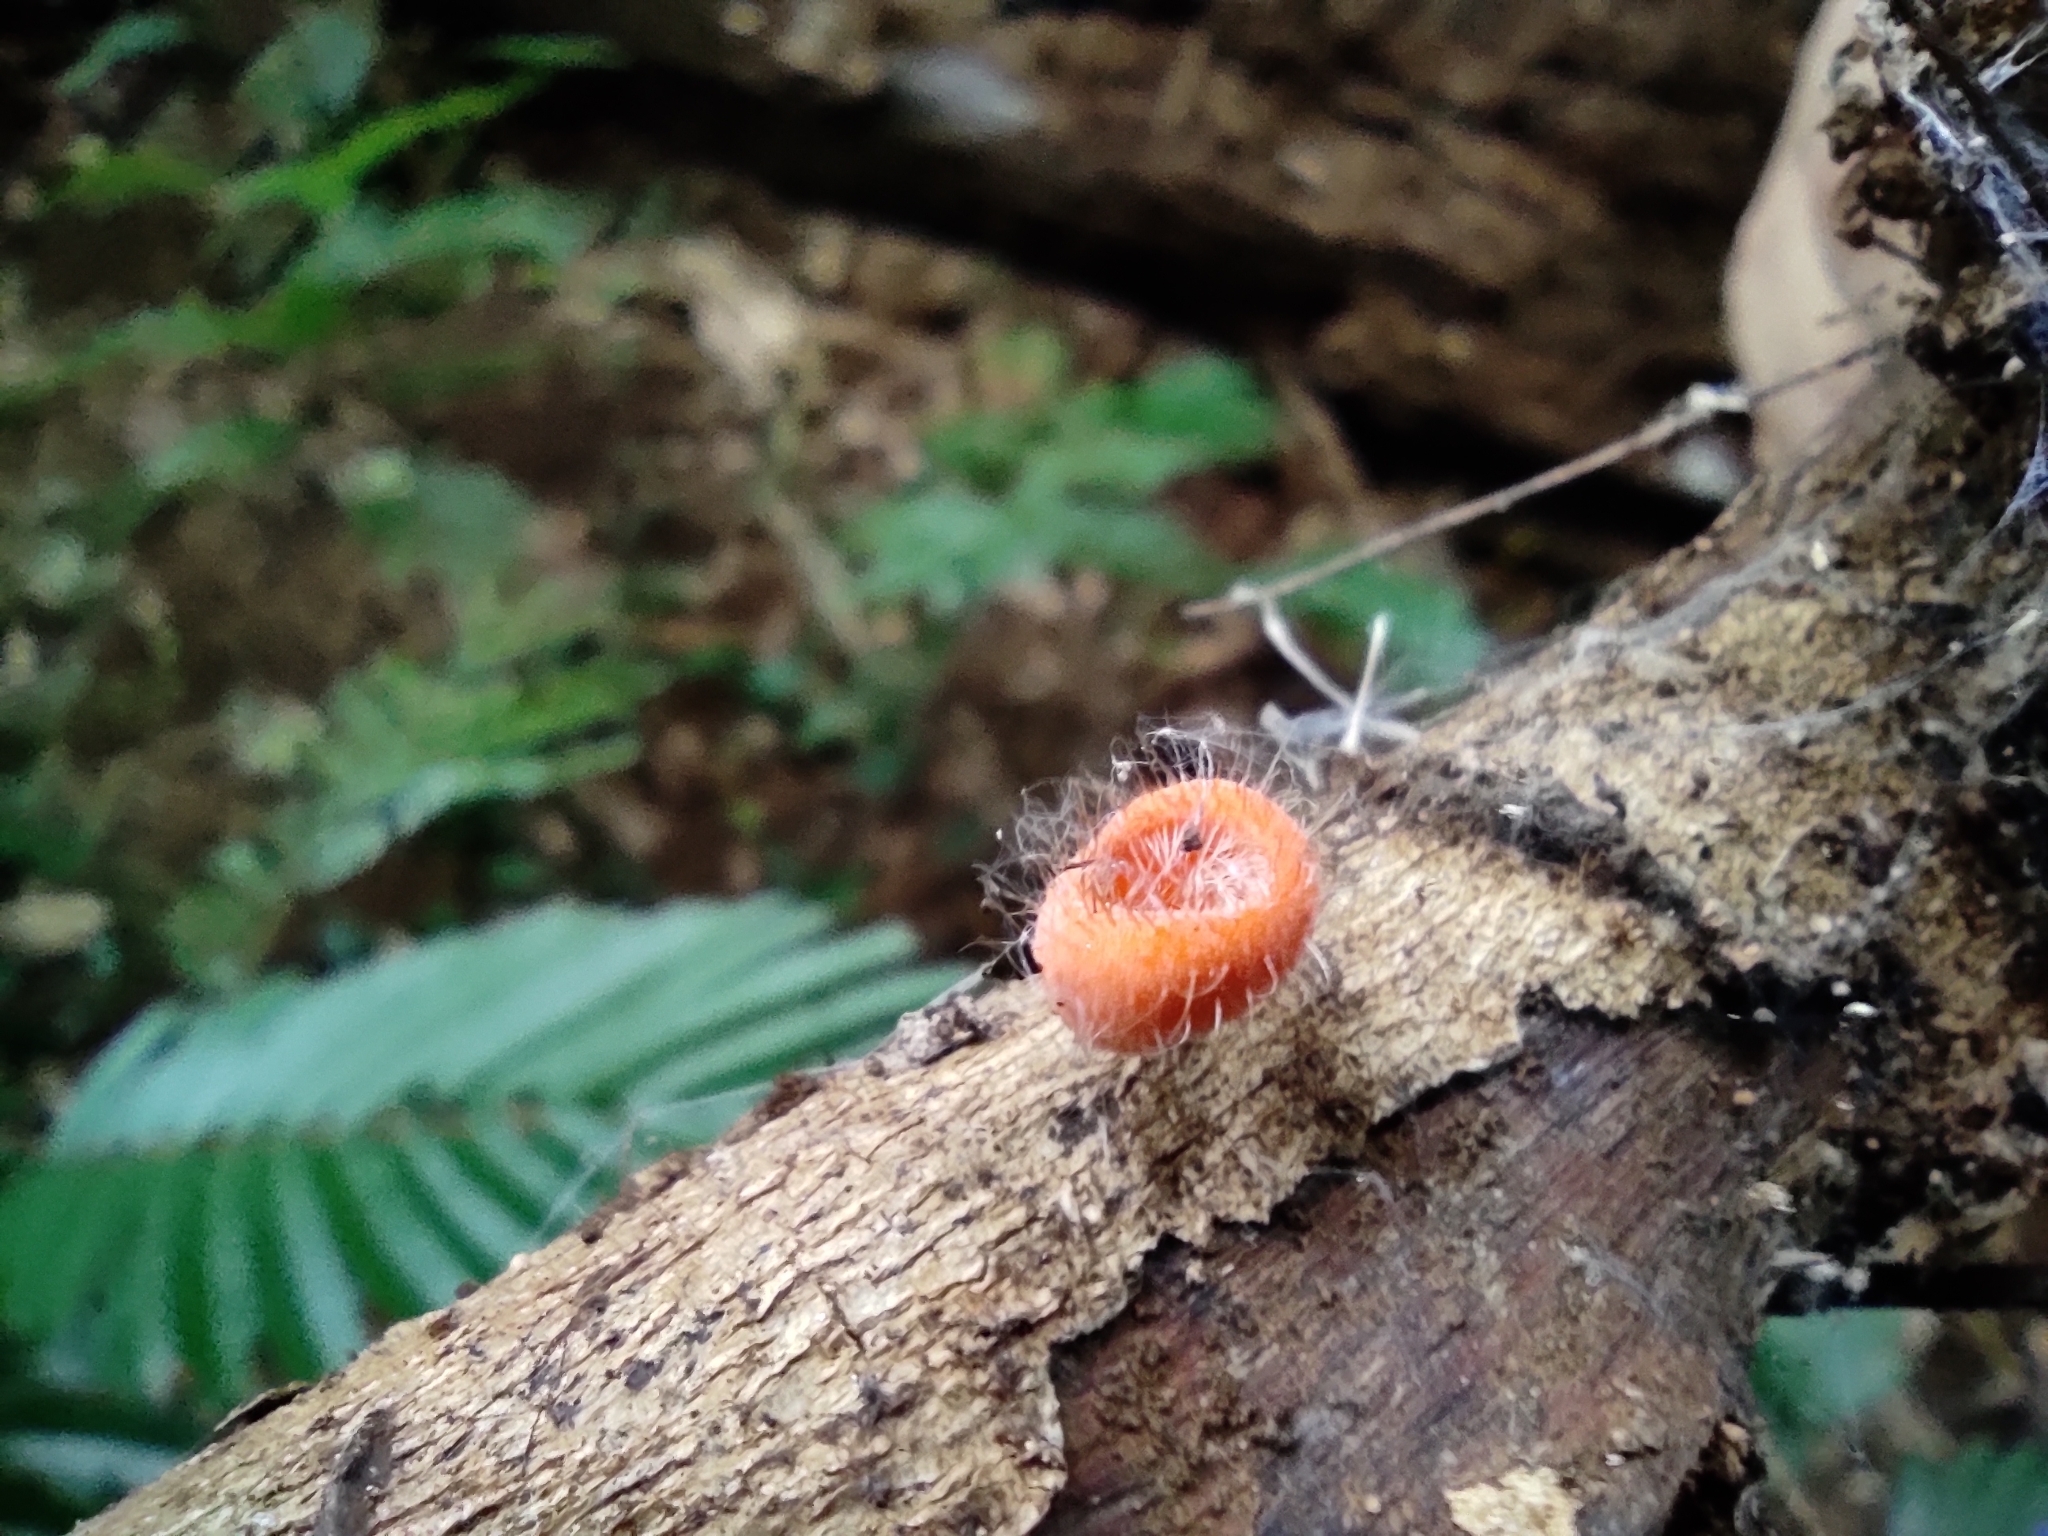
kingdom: Fungi
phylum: Ascomycota
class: Pezizomycetes
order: Pezizales
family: Sarcoscyphaceae
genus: Cookeina
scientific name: Cookeina tricholoma
